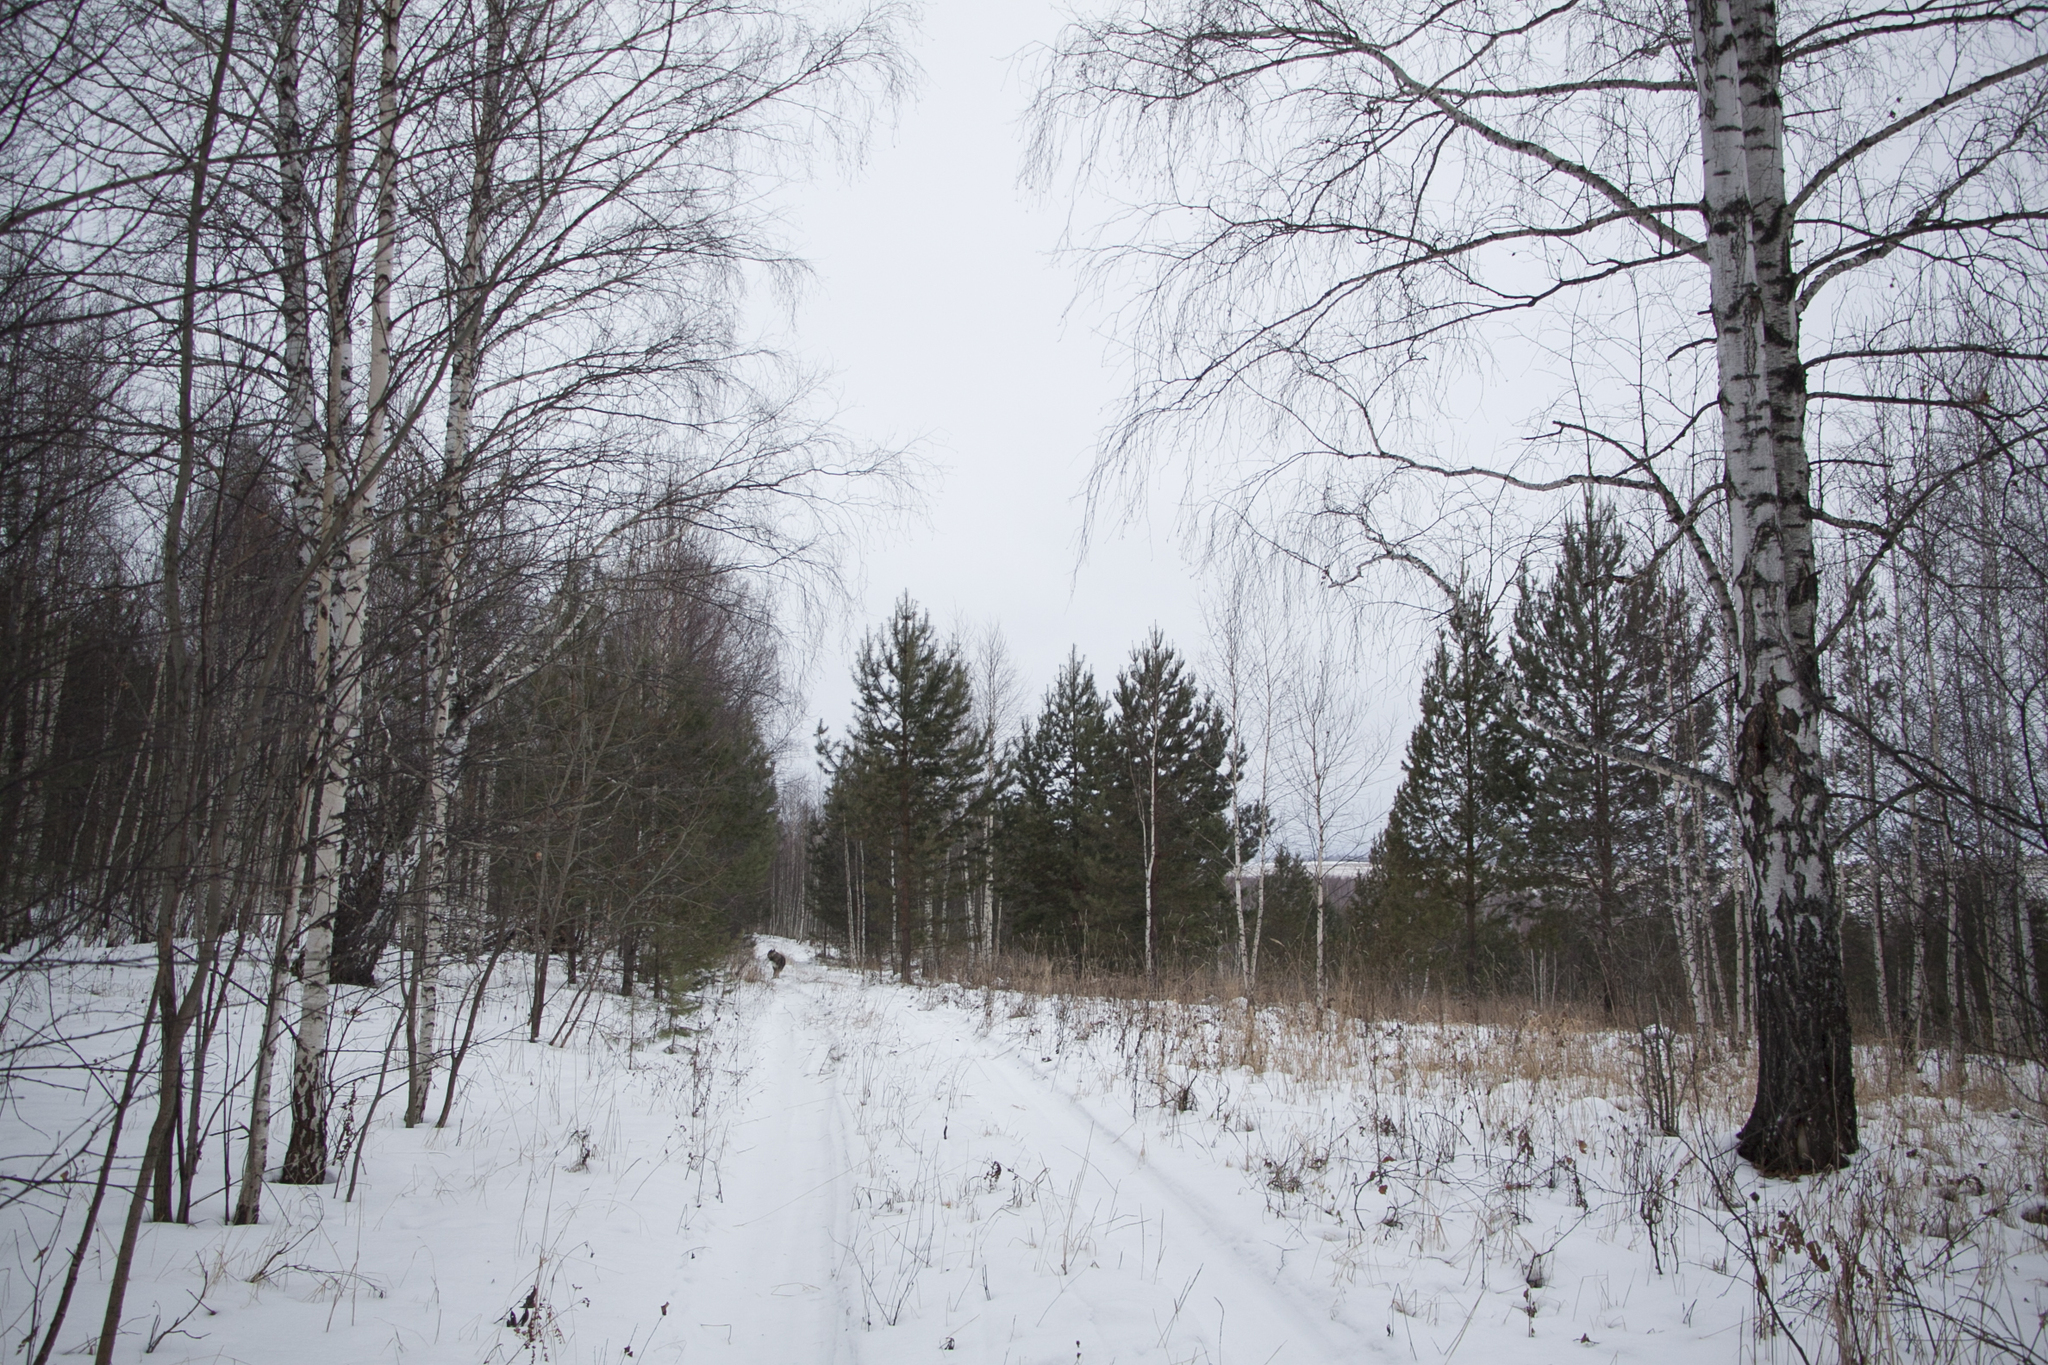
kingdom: Plantae
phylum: Tracheophyta
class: Pinopsida
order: Pinales
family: Pinaceae
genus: Pinus
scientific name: Pinus sylvestris
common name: Scots pine
